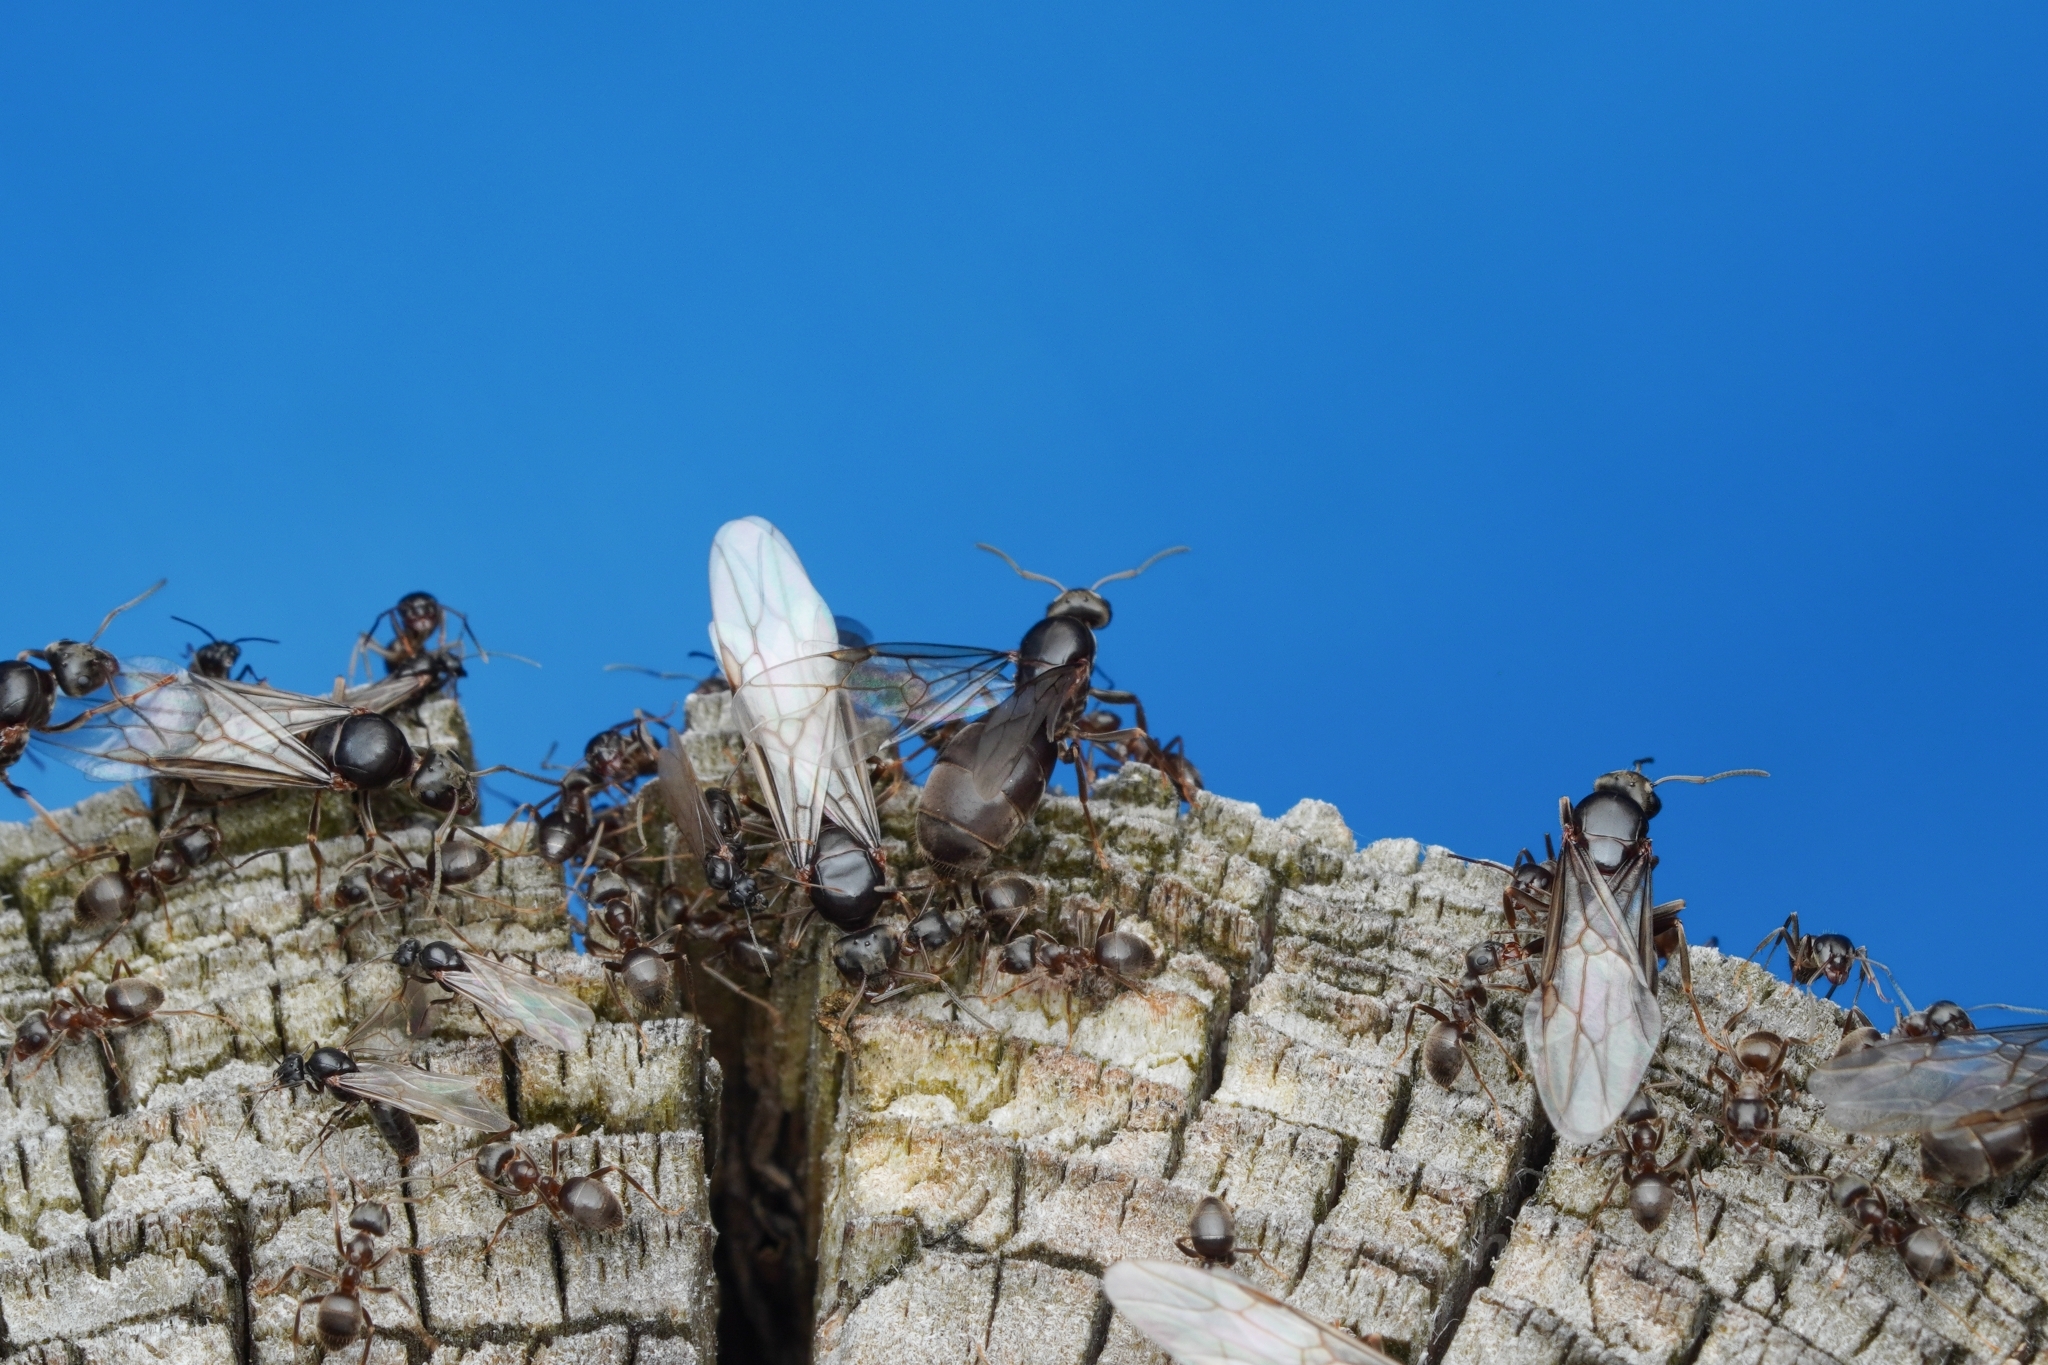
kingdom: Animalia
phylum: Arthropoda
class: Insecta
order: Hymenoptera
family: Formicidae
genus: Lasius
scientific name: Lasius japonicus
